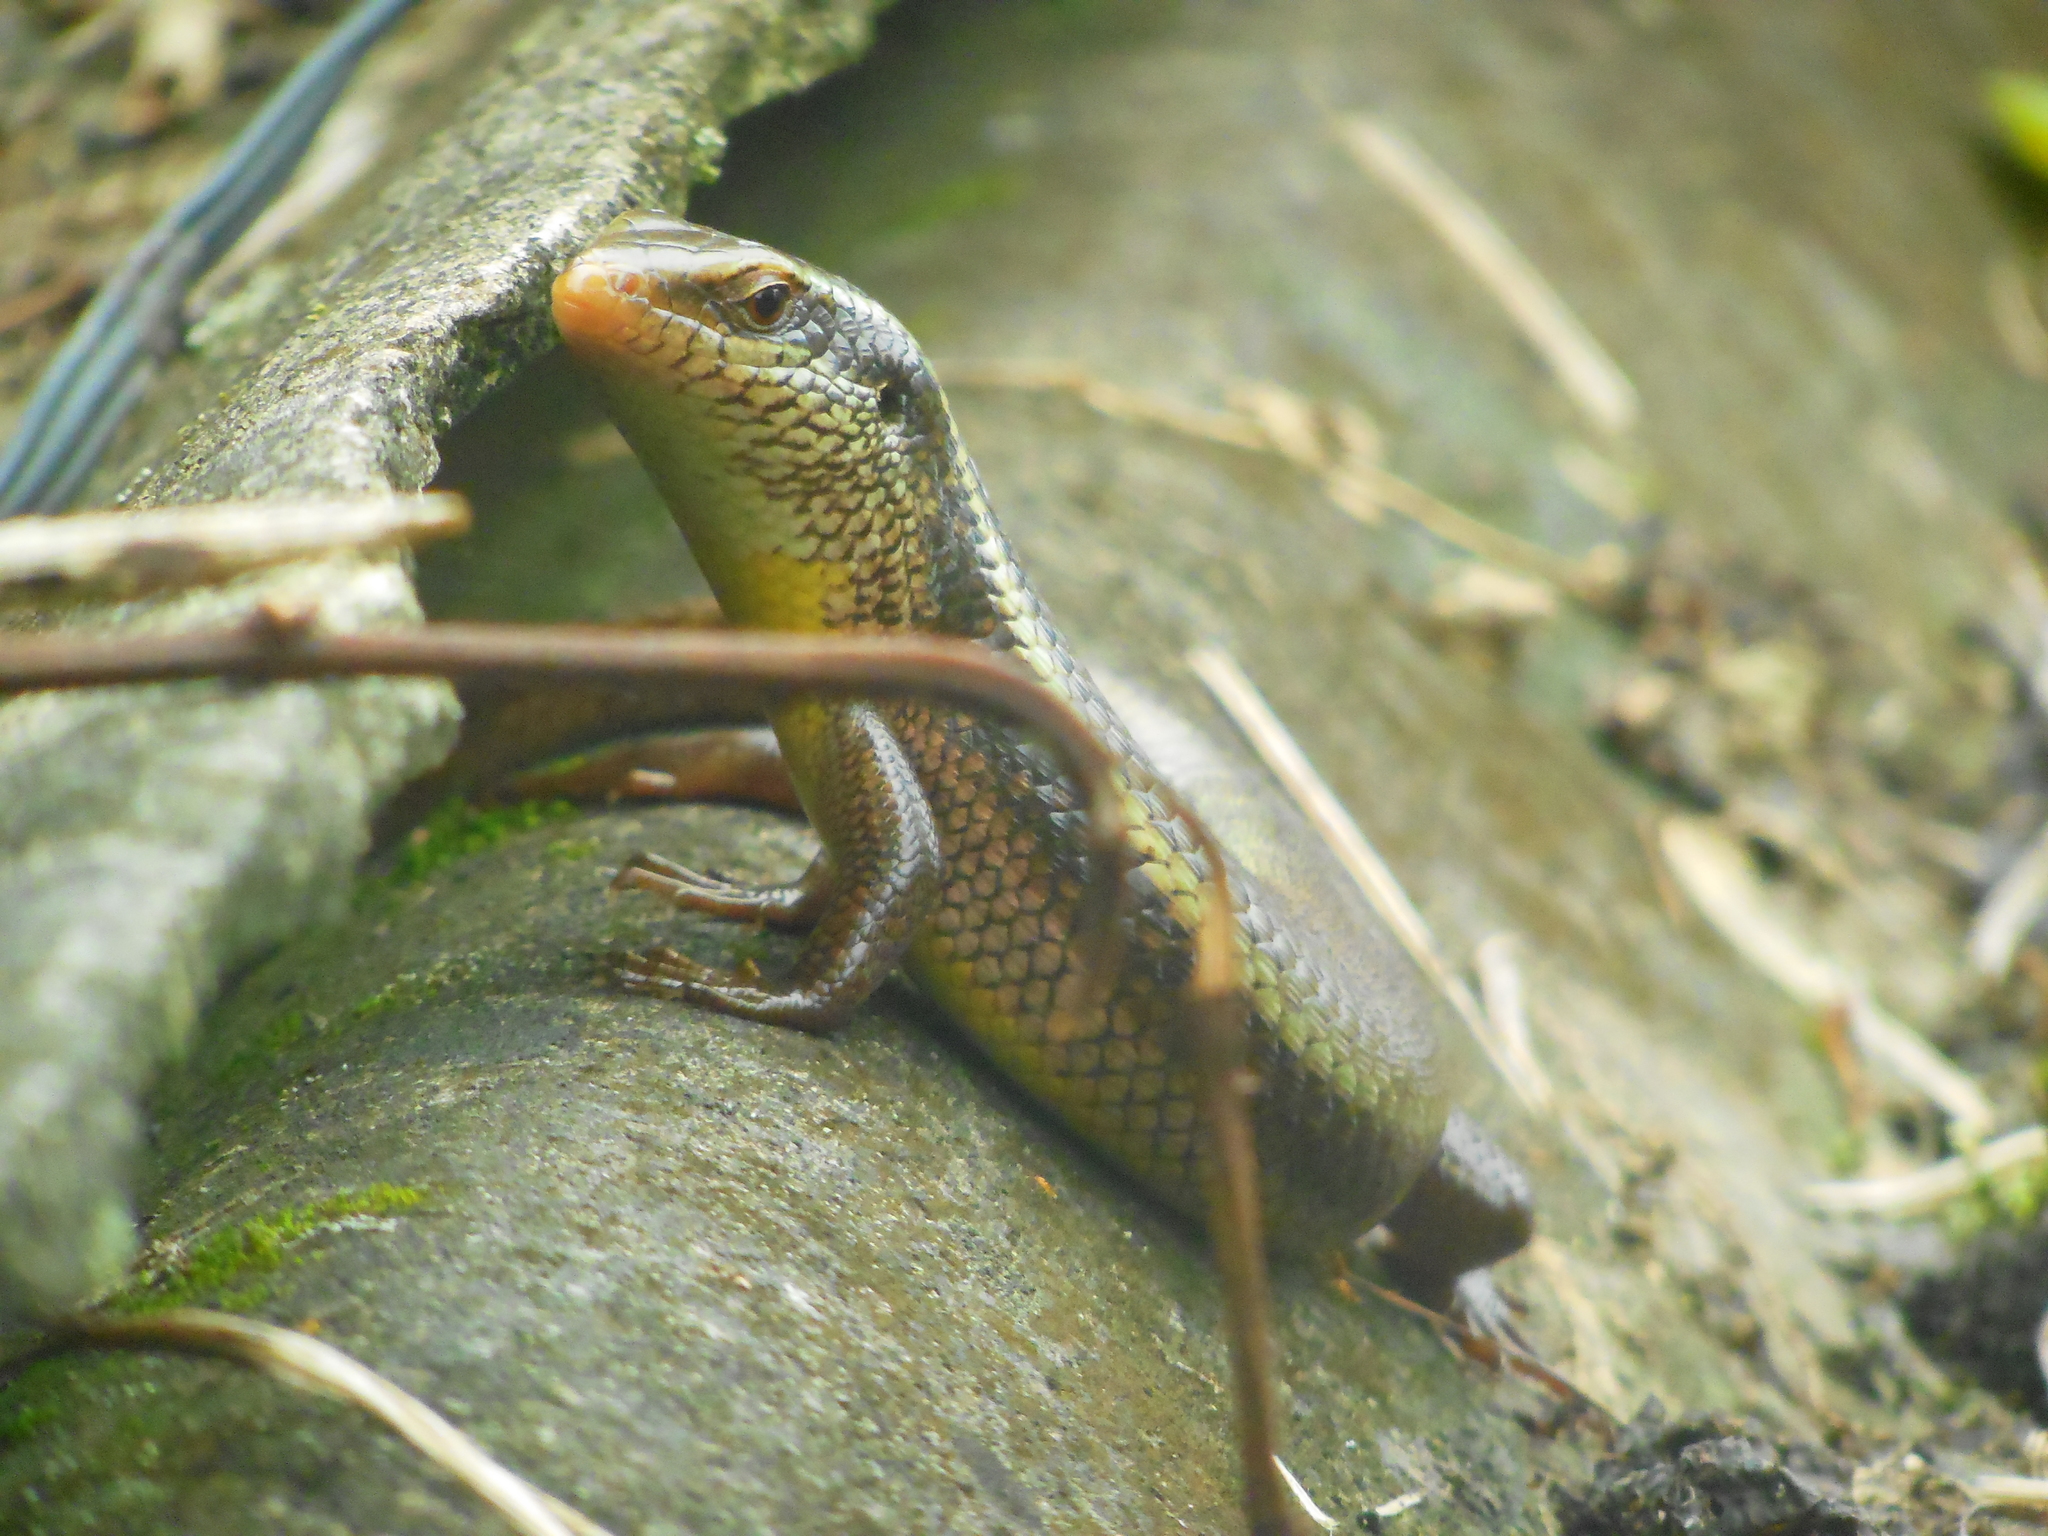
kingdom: Animalia
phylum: Chordata
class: Squamata
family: Scincidae
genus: Eutropis
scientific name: Eutropis carinata
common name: Keeled indian mabuya
